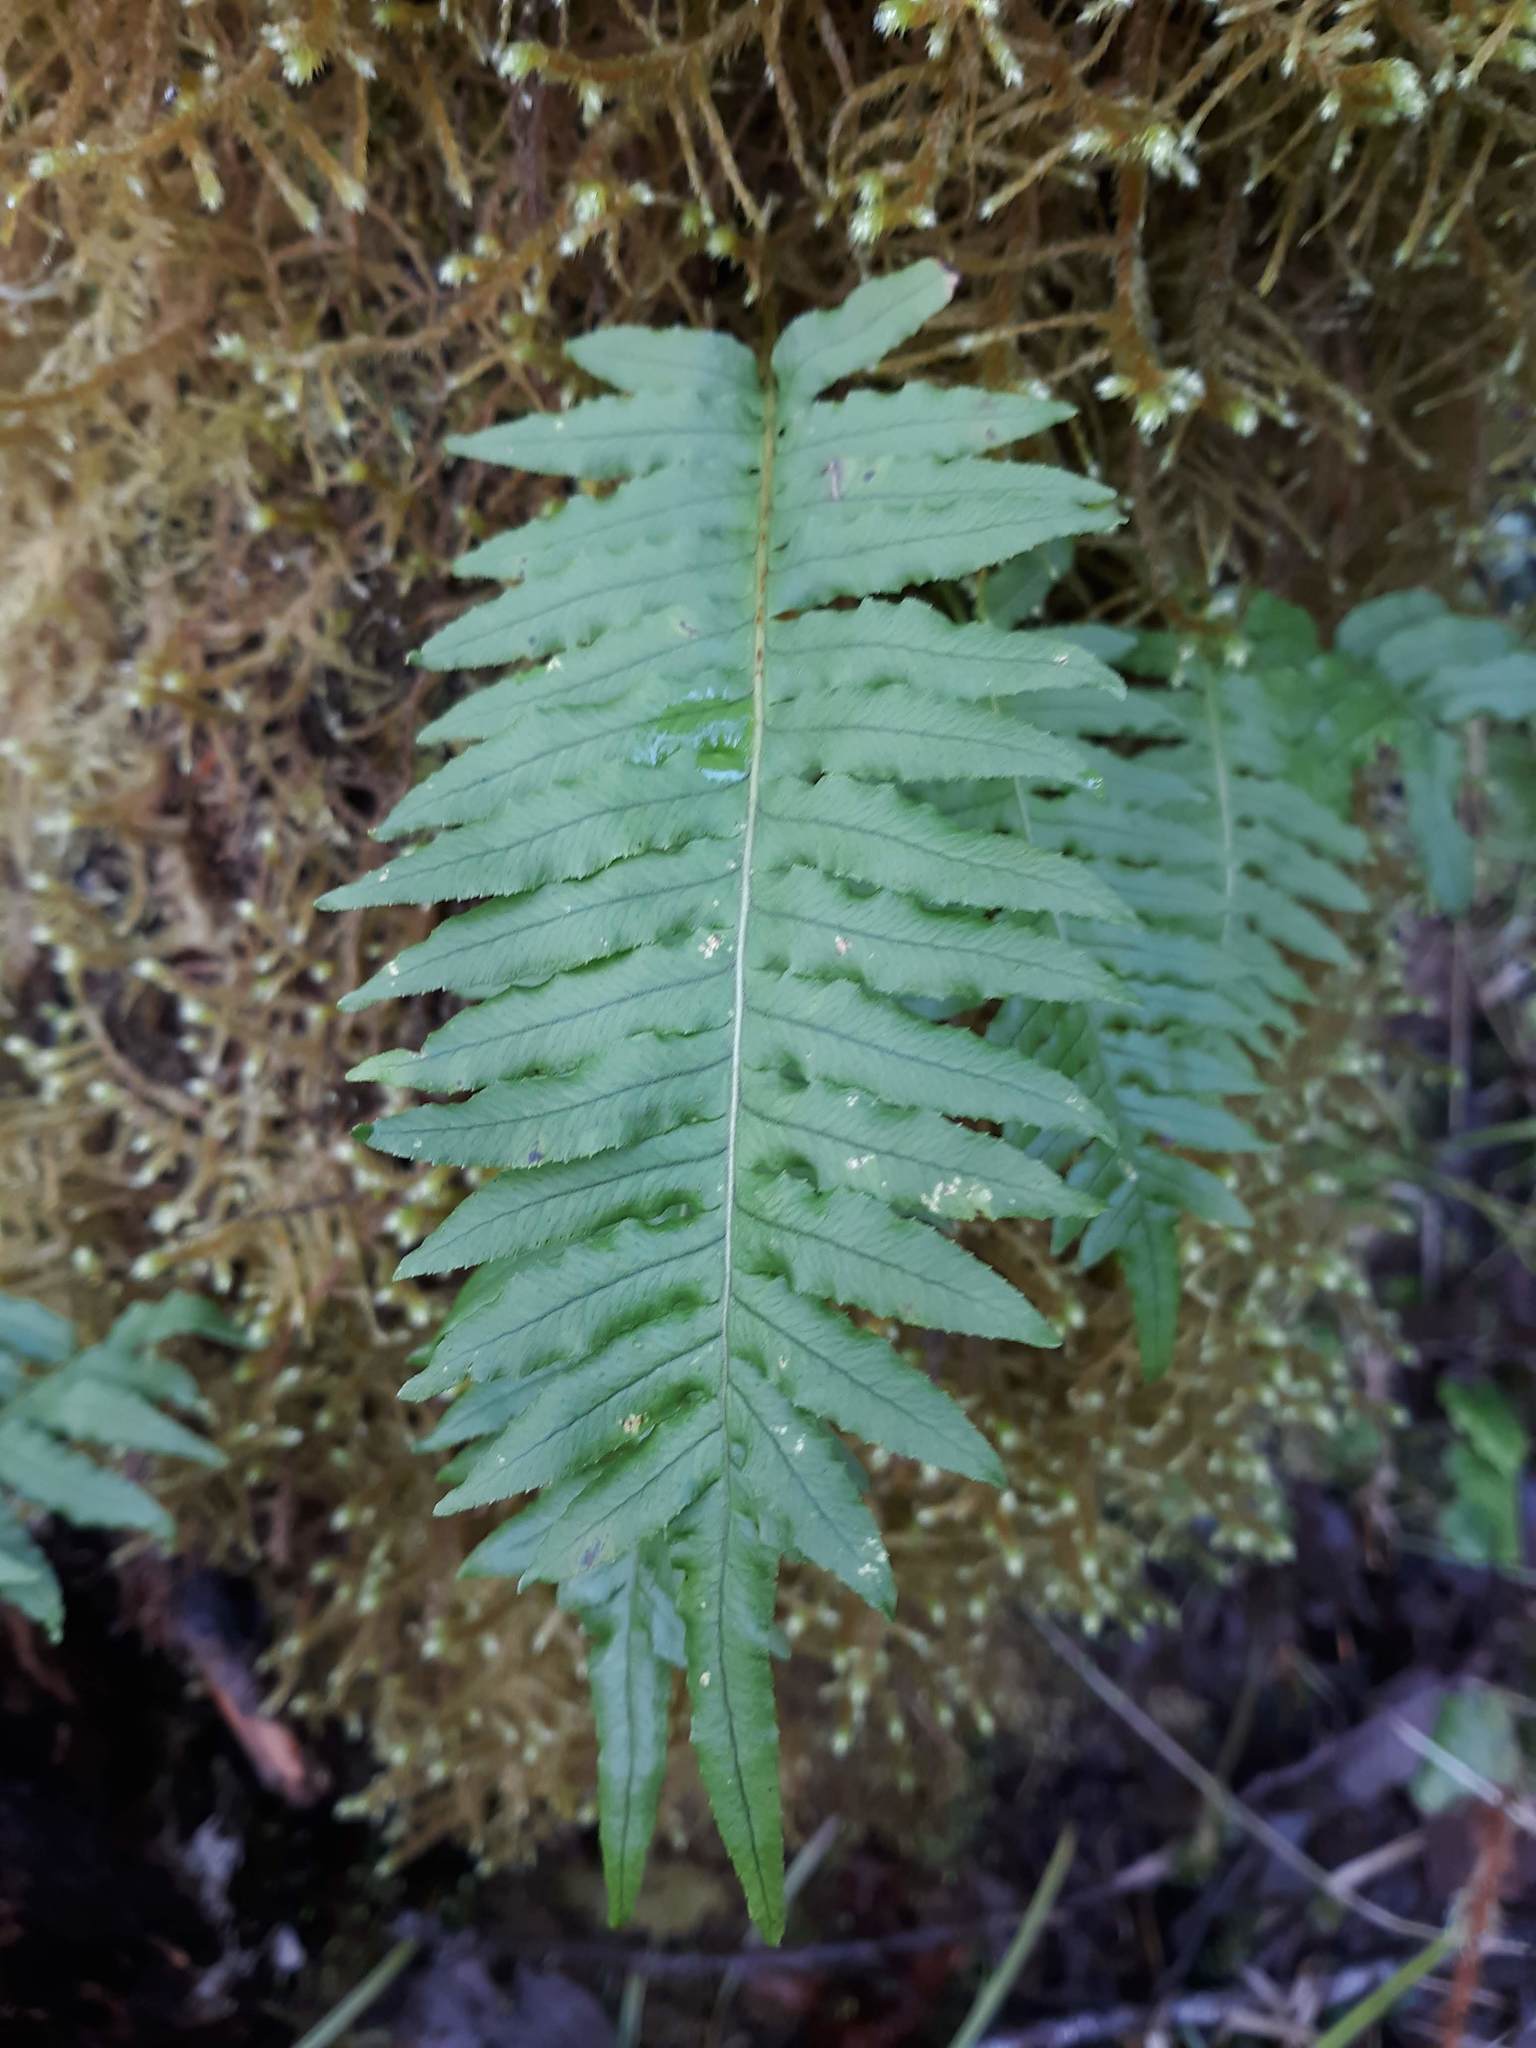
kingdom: Plantae
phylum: Tracheophyta
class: Polypodiopsida
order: Polypodiales
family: Polypodiaceae
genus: Polypodium
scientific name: Polypodium glycyrrhiza
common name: Licorice fern
